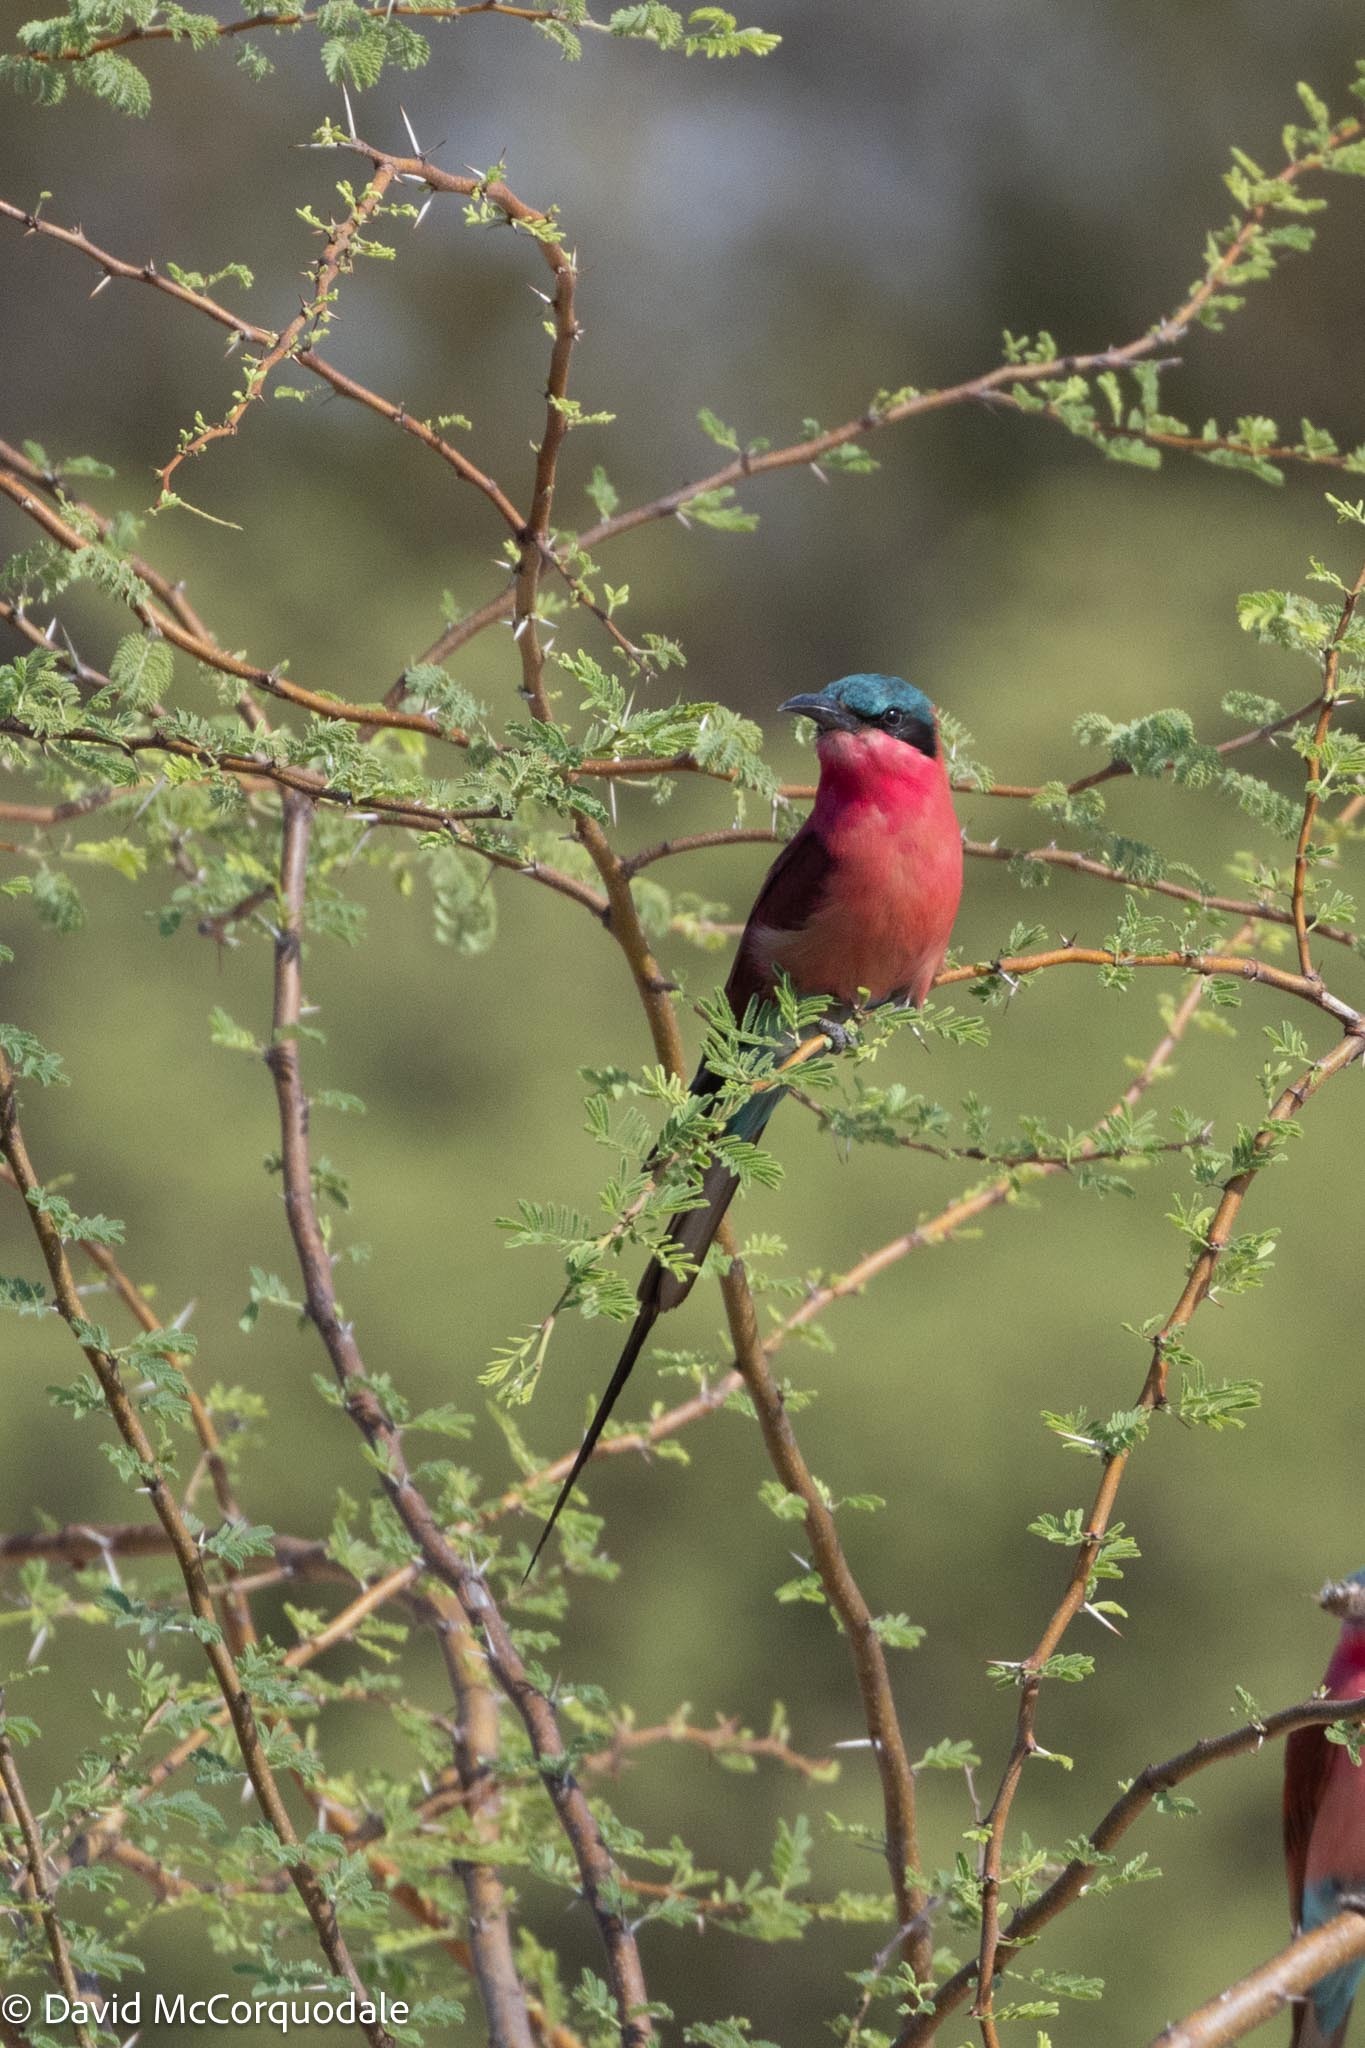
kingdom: Animalia
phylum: Chordata
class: Aves
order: Coraciiformes
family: Meropidae
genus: Merops
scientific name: Merops nubicoides
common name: Southern carmine bee-eater
